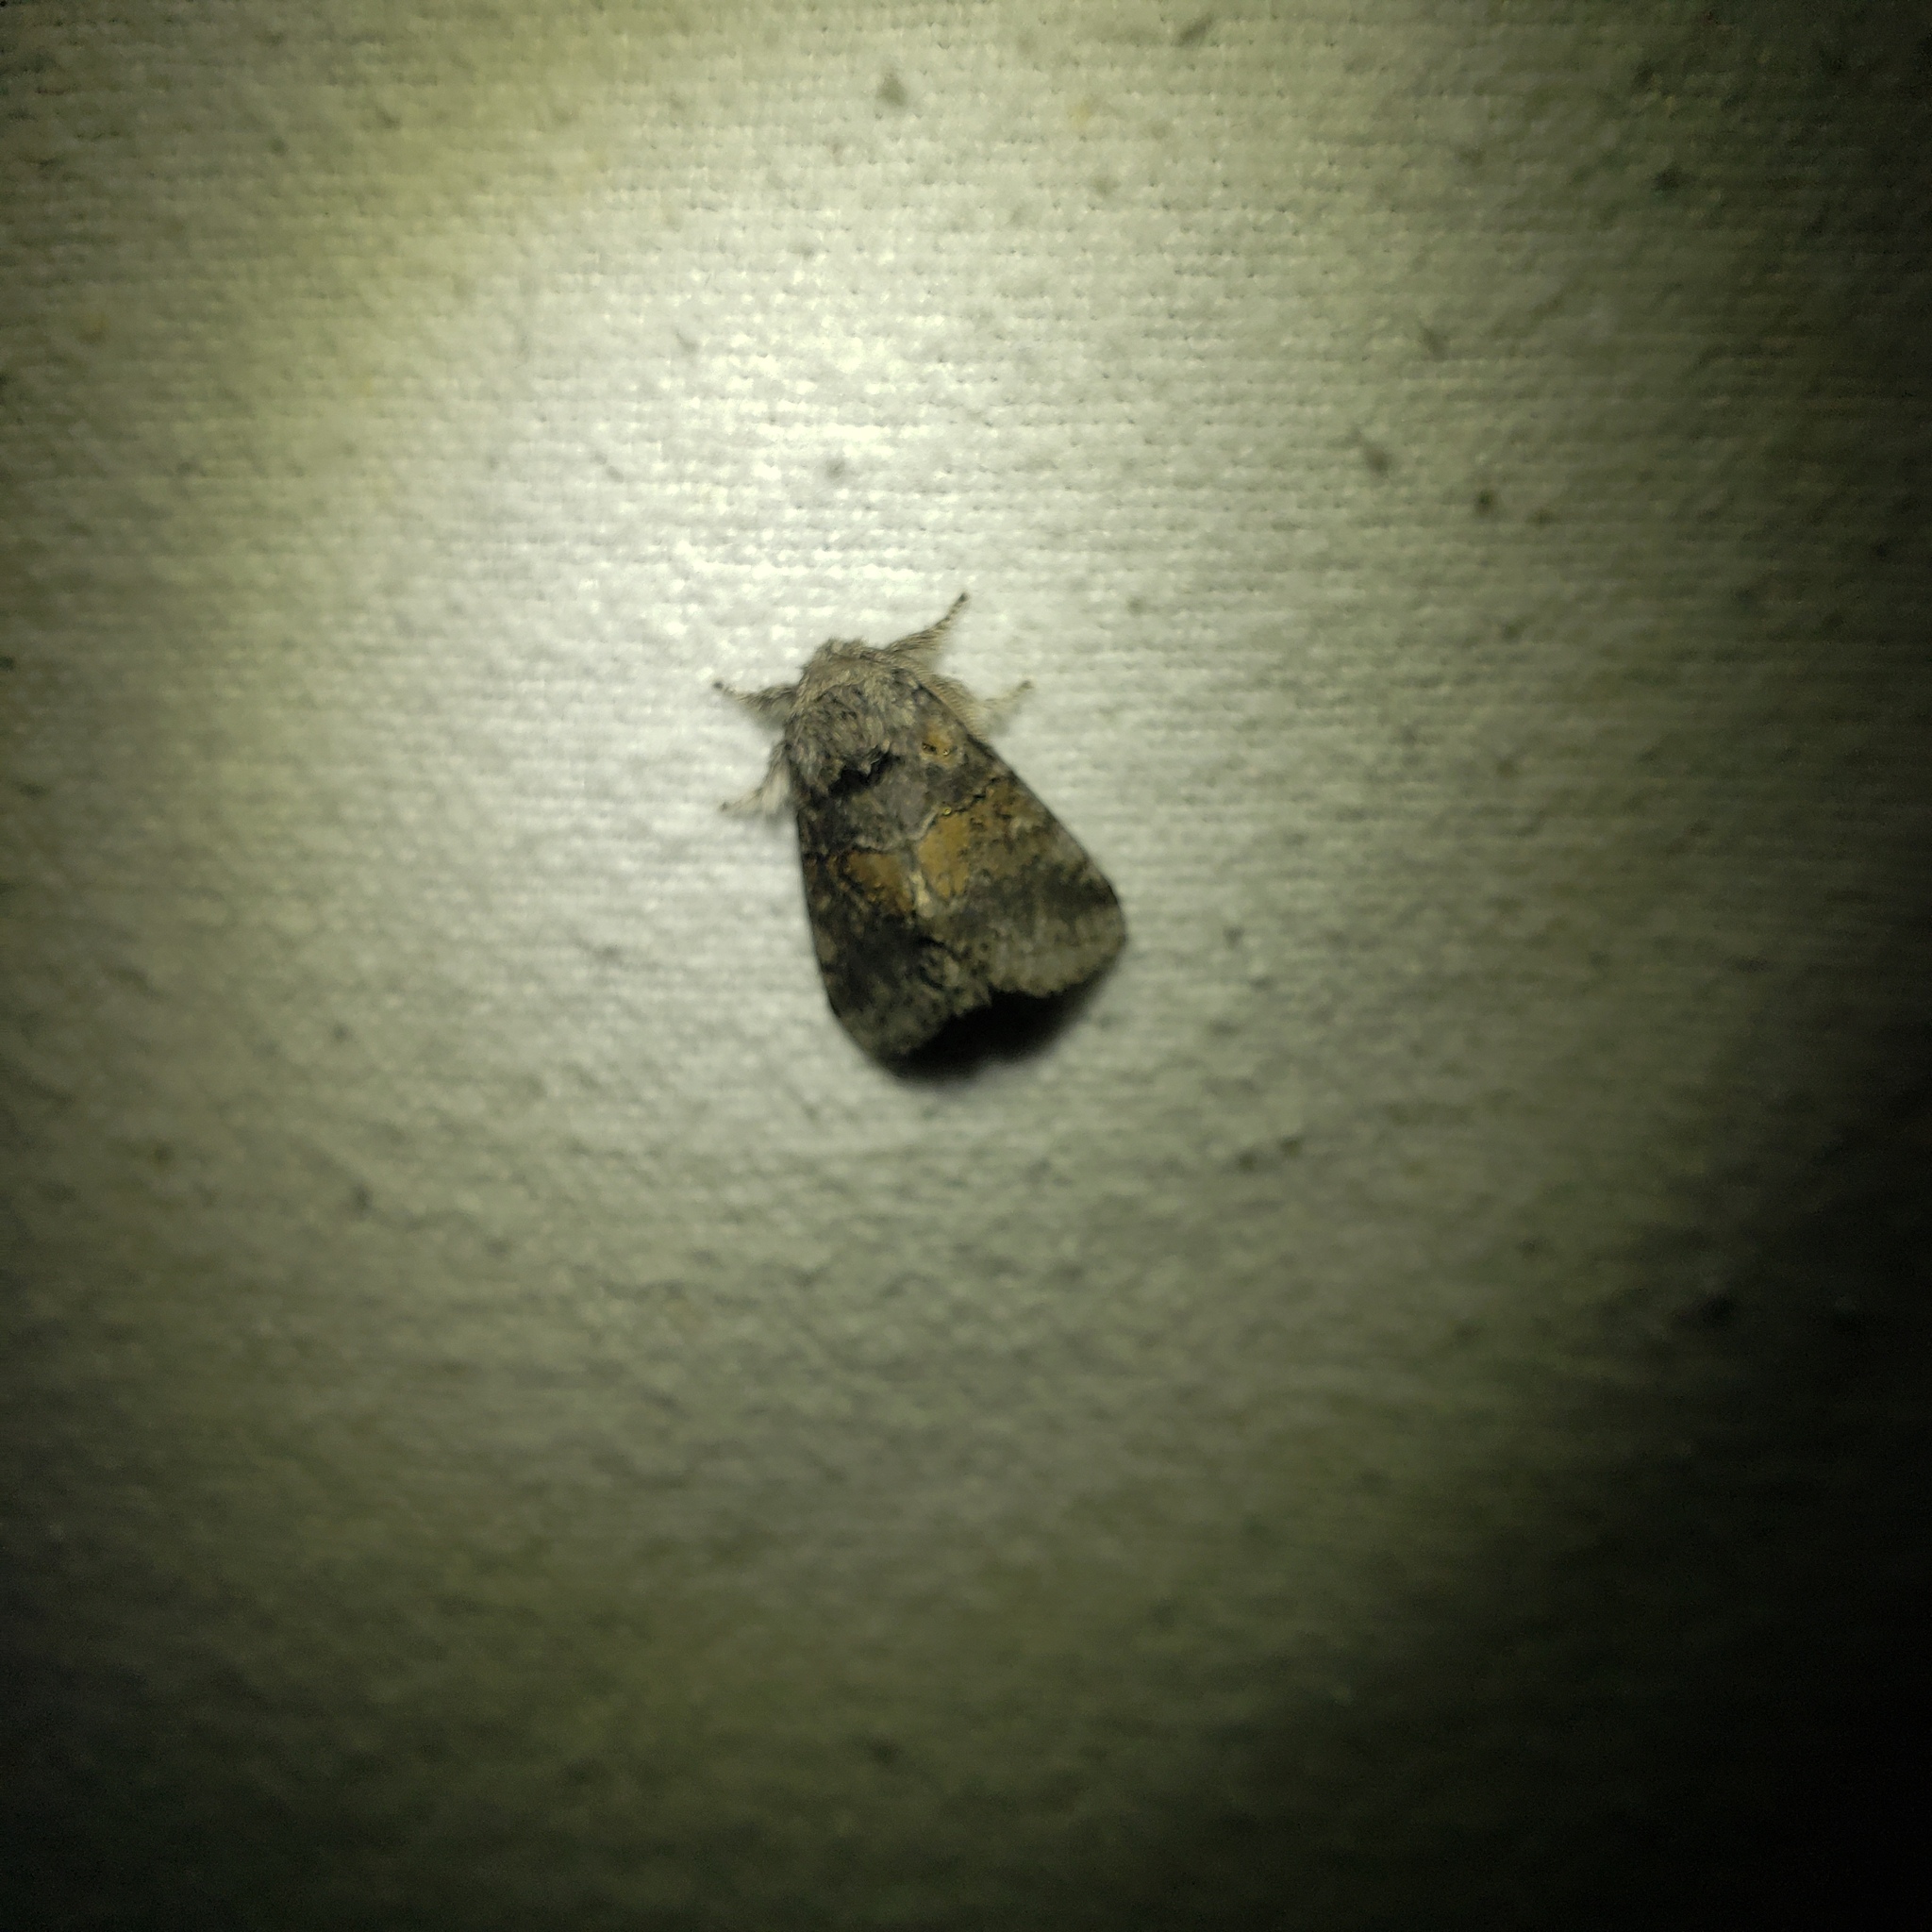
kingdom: Animalia
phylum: Arthropoda
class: Insecta
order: Lepidoptera
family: Notodontidae
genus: Gluphisia
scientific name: Gluphisia septentrionis
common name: Common gluphisia
